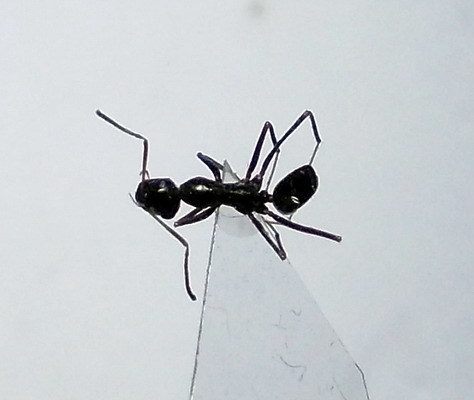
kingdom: Animalia
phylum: Arthropoda
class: Insecta
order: Hymenoptera
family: Formicidae
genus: Cataglyphis
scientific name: Cataglyphis aenescens
